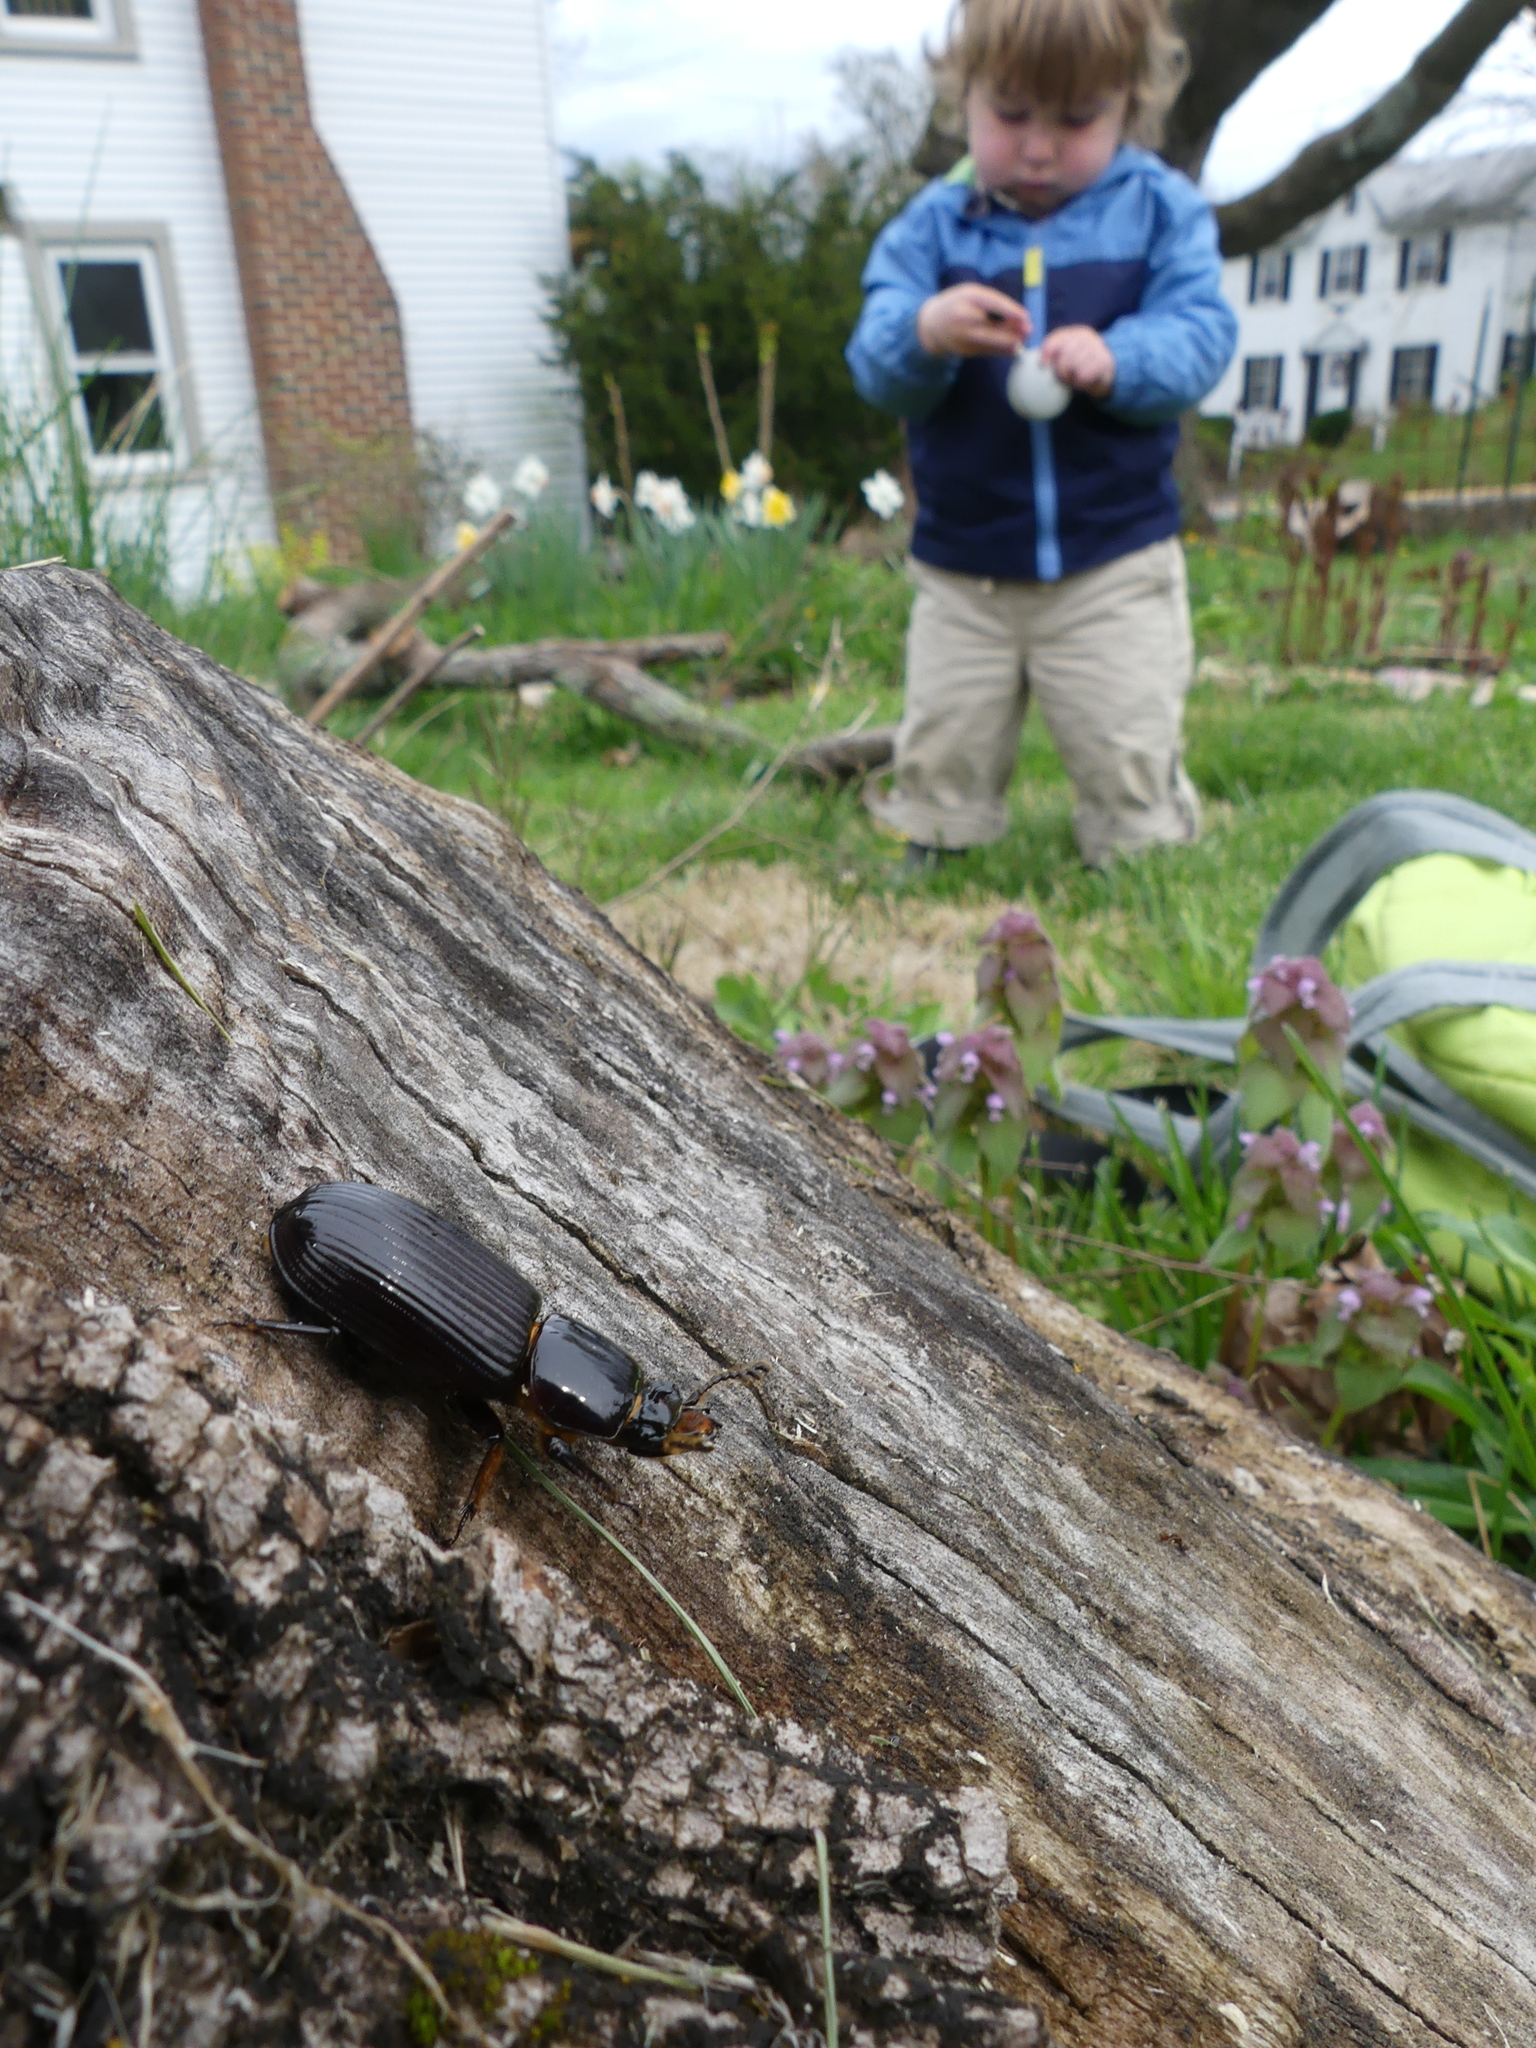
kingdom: Animalia
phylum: Arthropoda
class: Insecta
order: Coleoptera
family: Passalidae
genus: Odontotaenius
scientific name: Odontotaenius disjunctus
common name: Patent leather beetle
